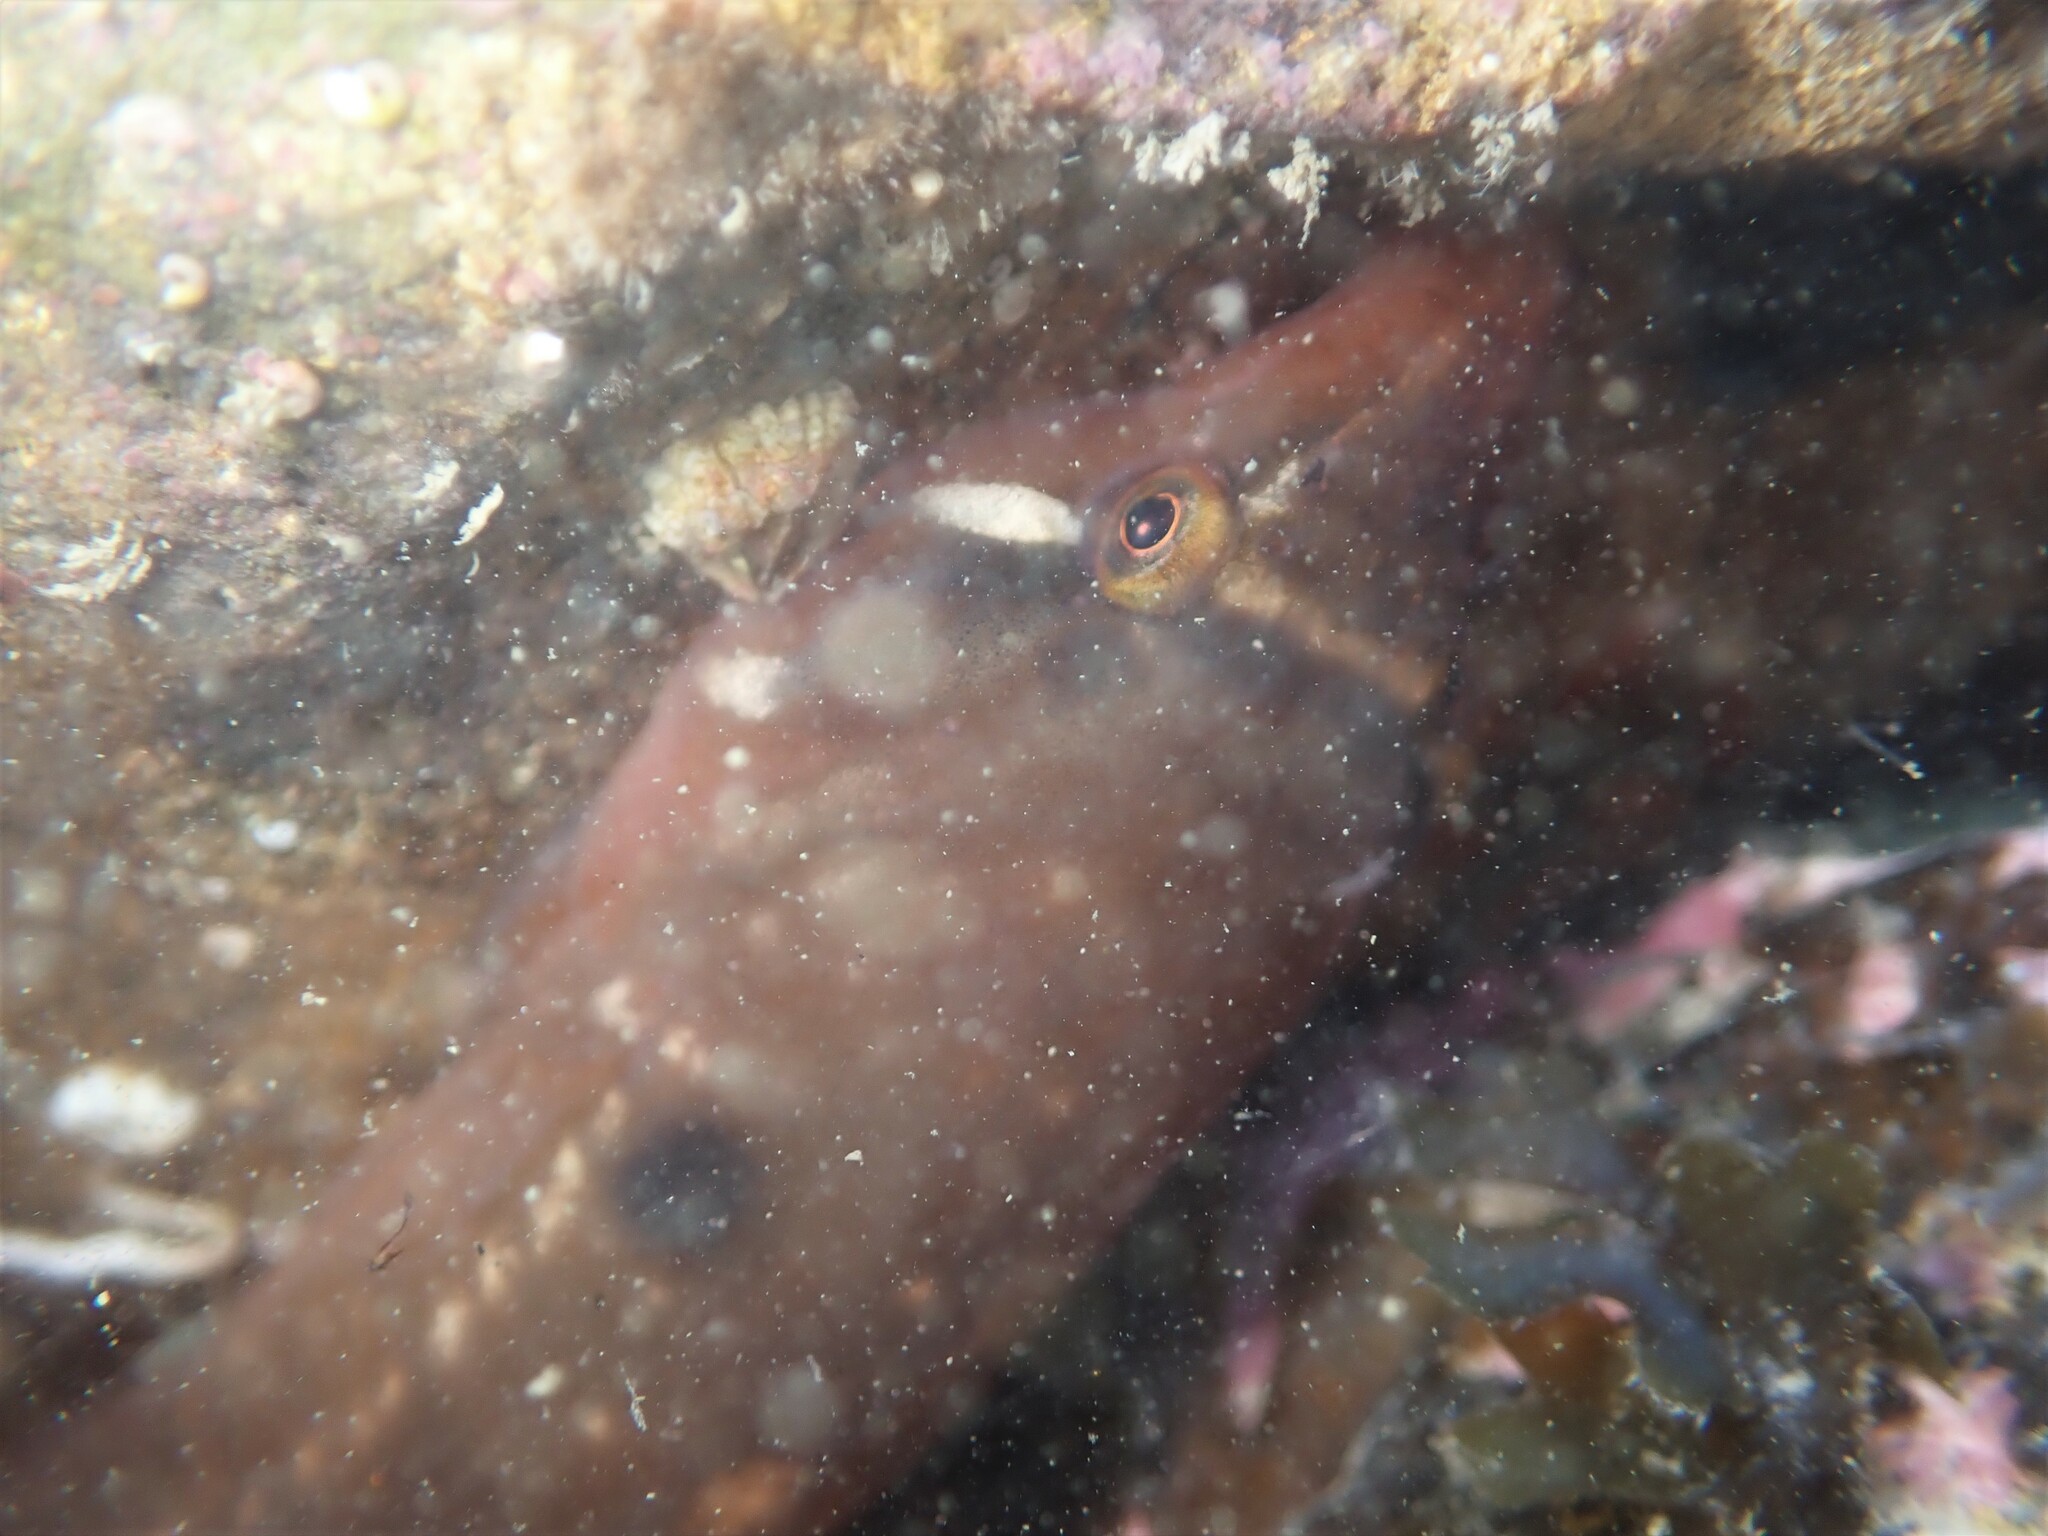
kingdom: Animalia
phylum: Chordata
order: Gobiesociformes
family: Gobiesocidae
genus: Dellichthys
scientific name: Dellichthys morelandi
